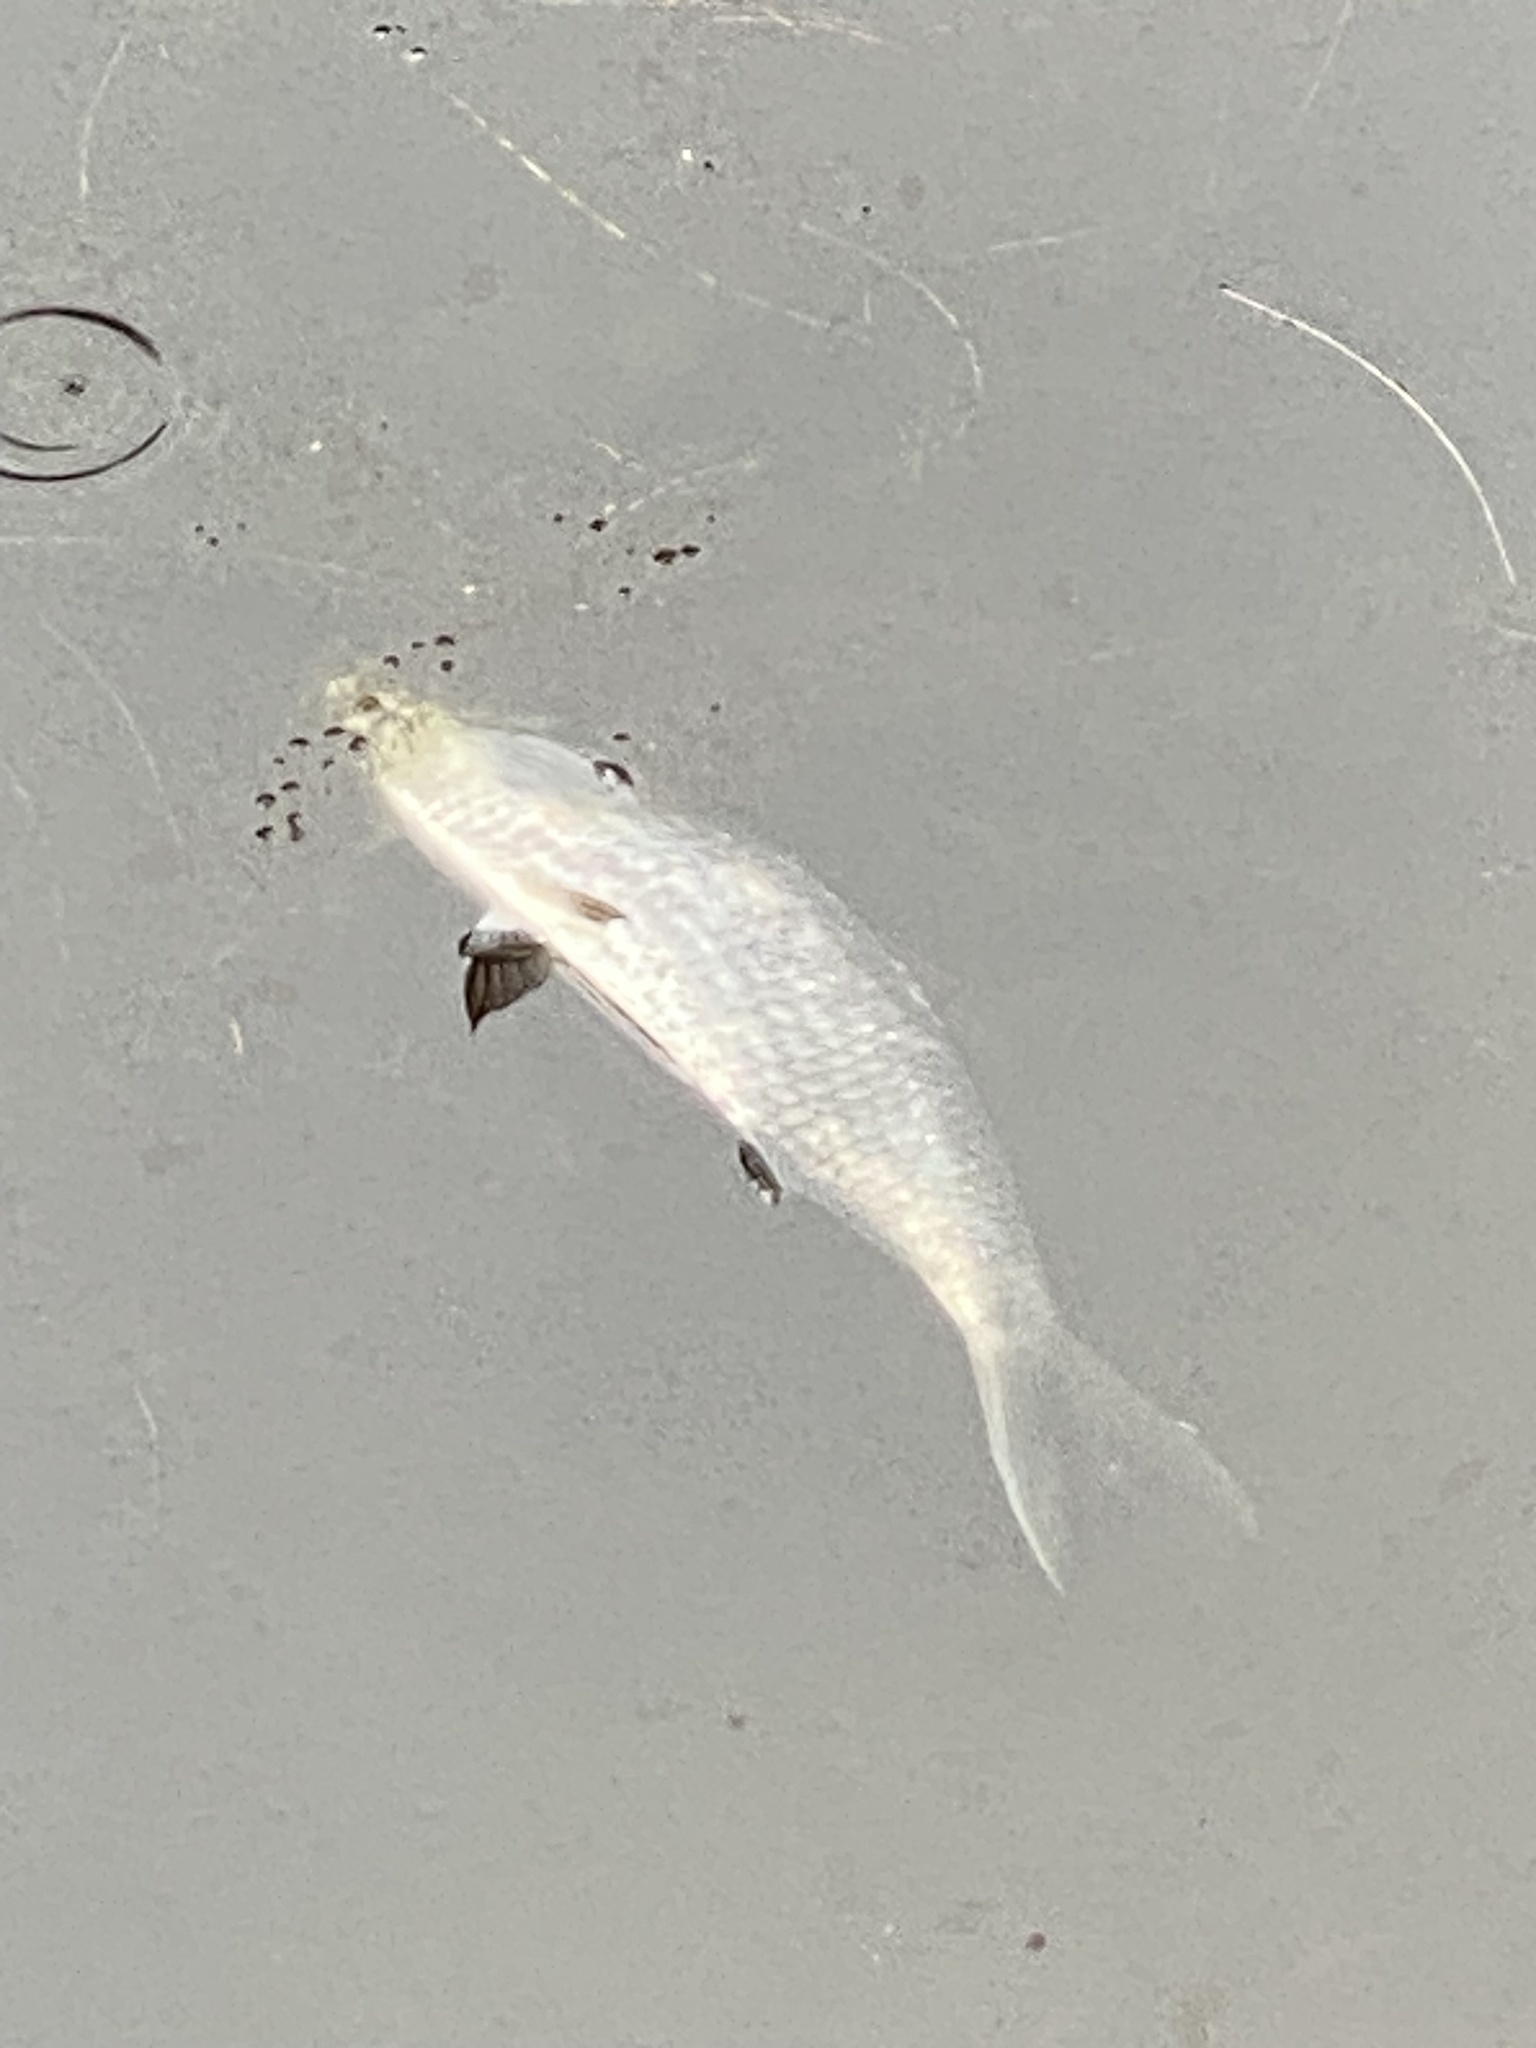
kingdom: Animalia
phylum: Chordata
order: Clupeiformes
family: Clupeidae
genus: Nematalosa
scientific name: Nematalosa erebi
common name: Australian river gizzard shad
